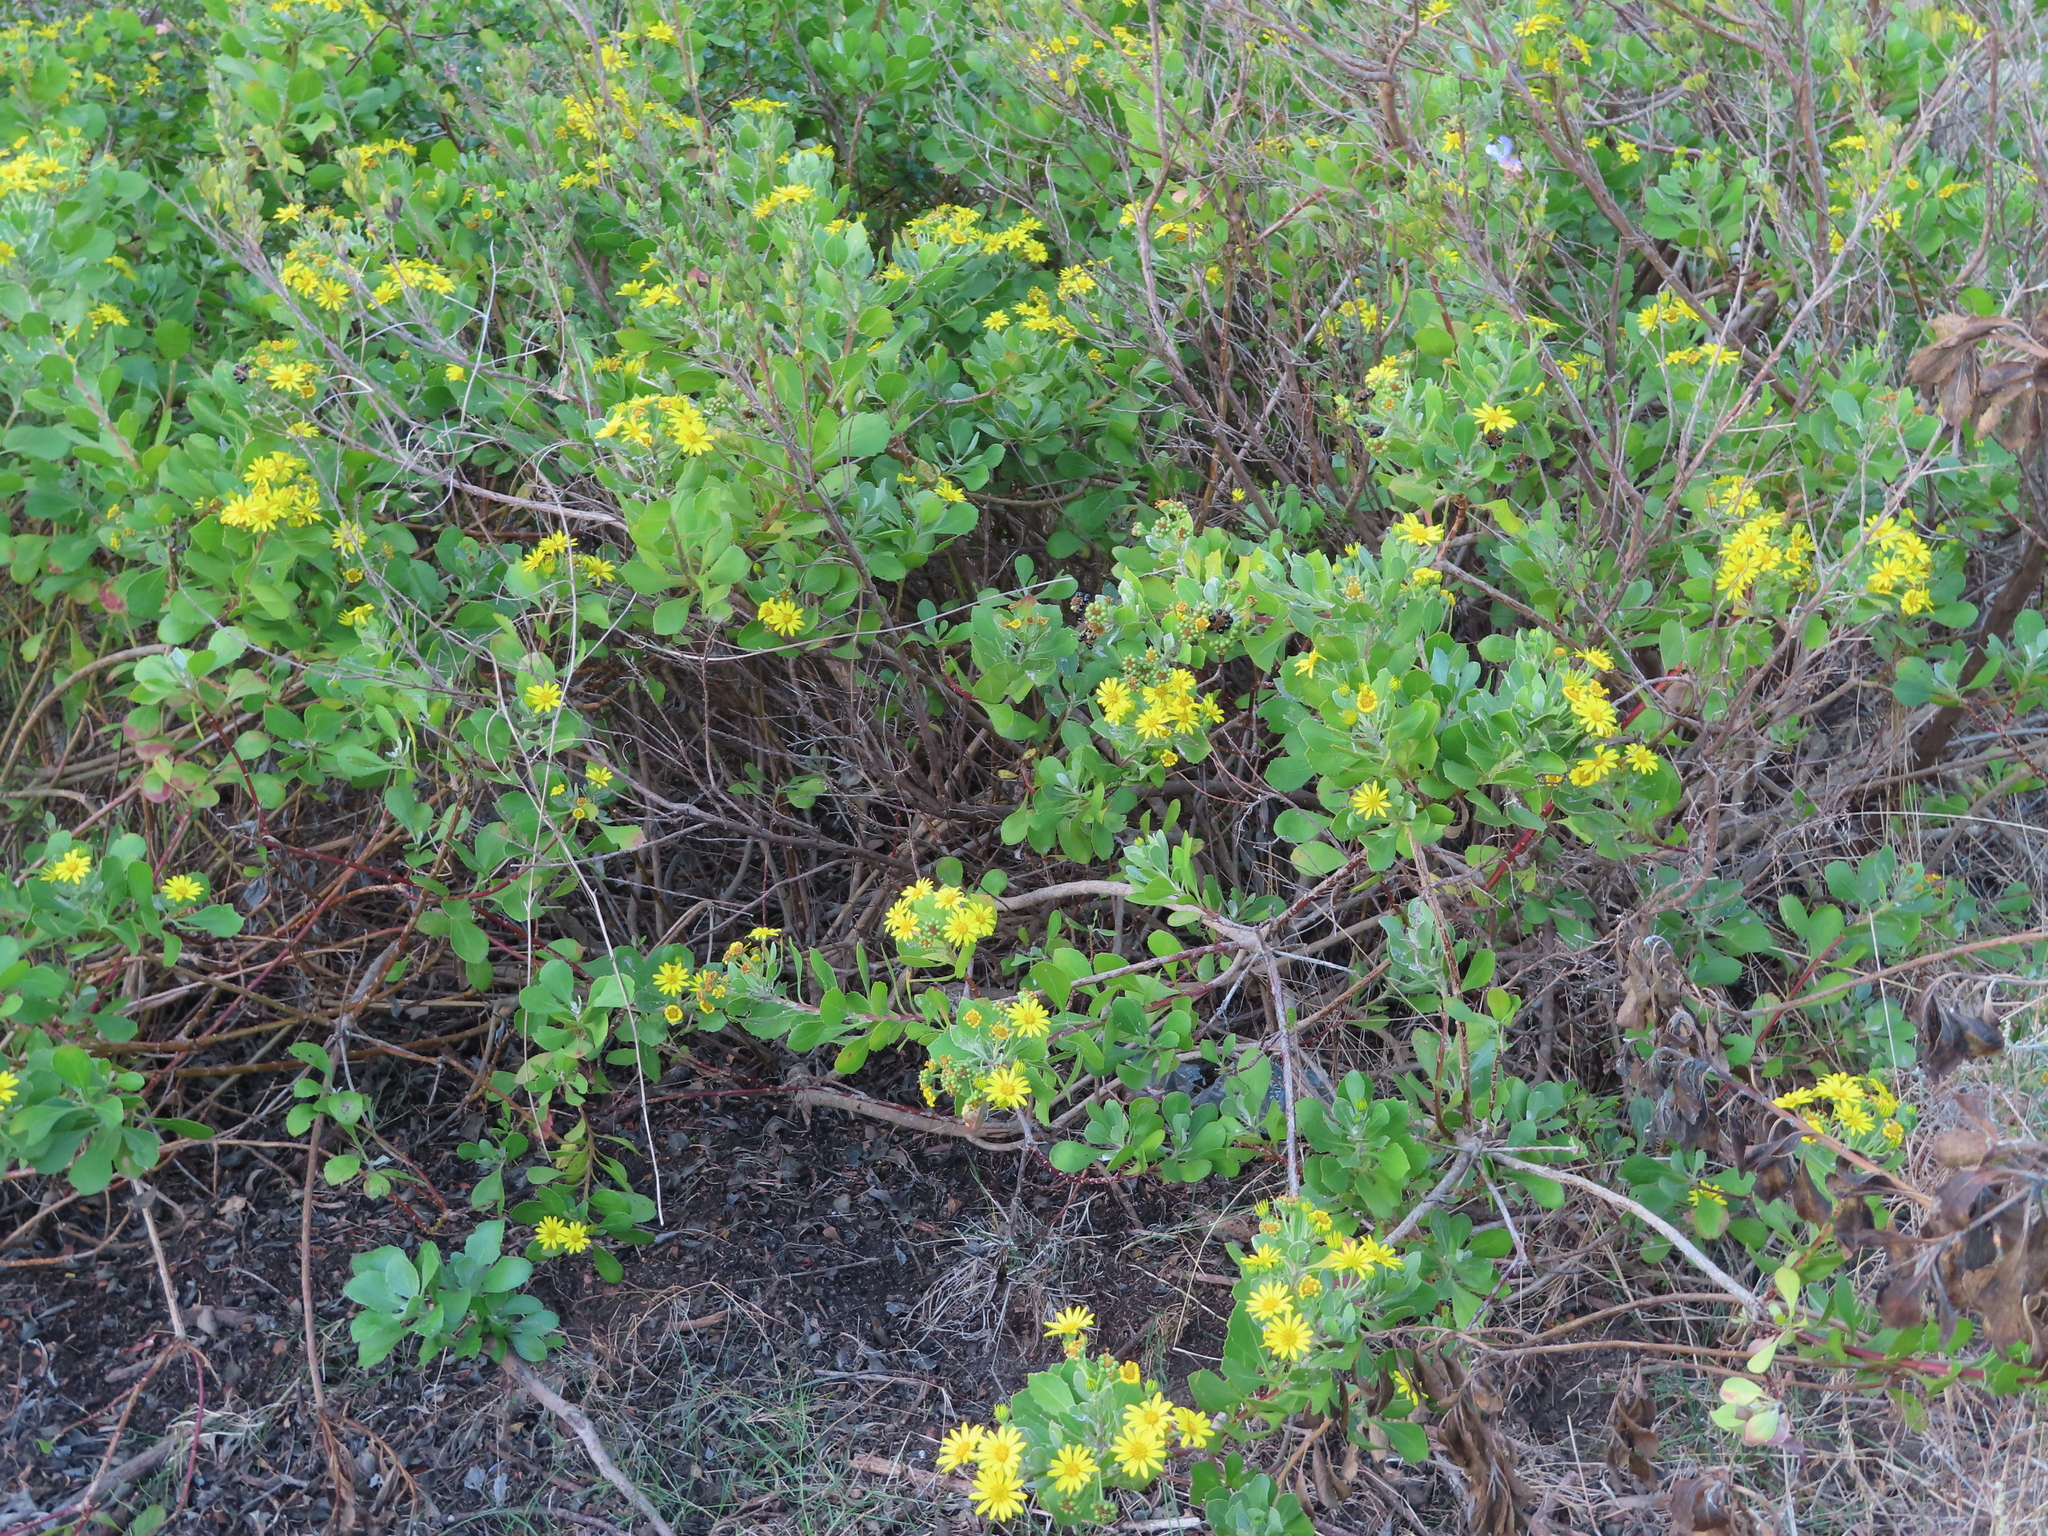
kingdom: Plantae
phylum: Tracheophyta
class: Magnoliopsida
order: Asterales
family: Asteraceae
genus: Osteospermum
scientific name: Osteospermum moniliferum
